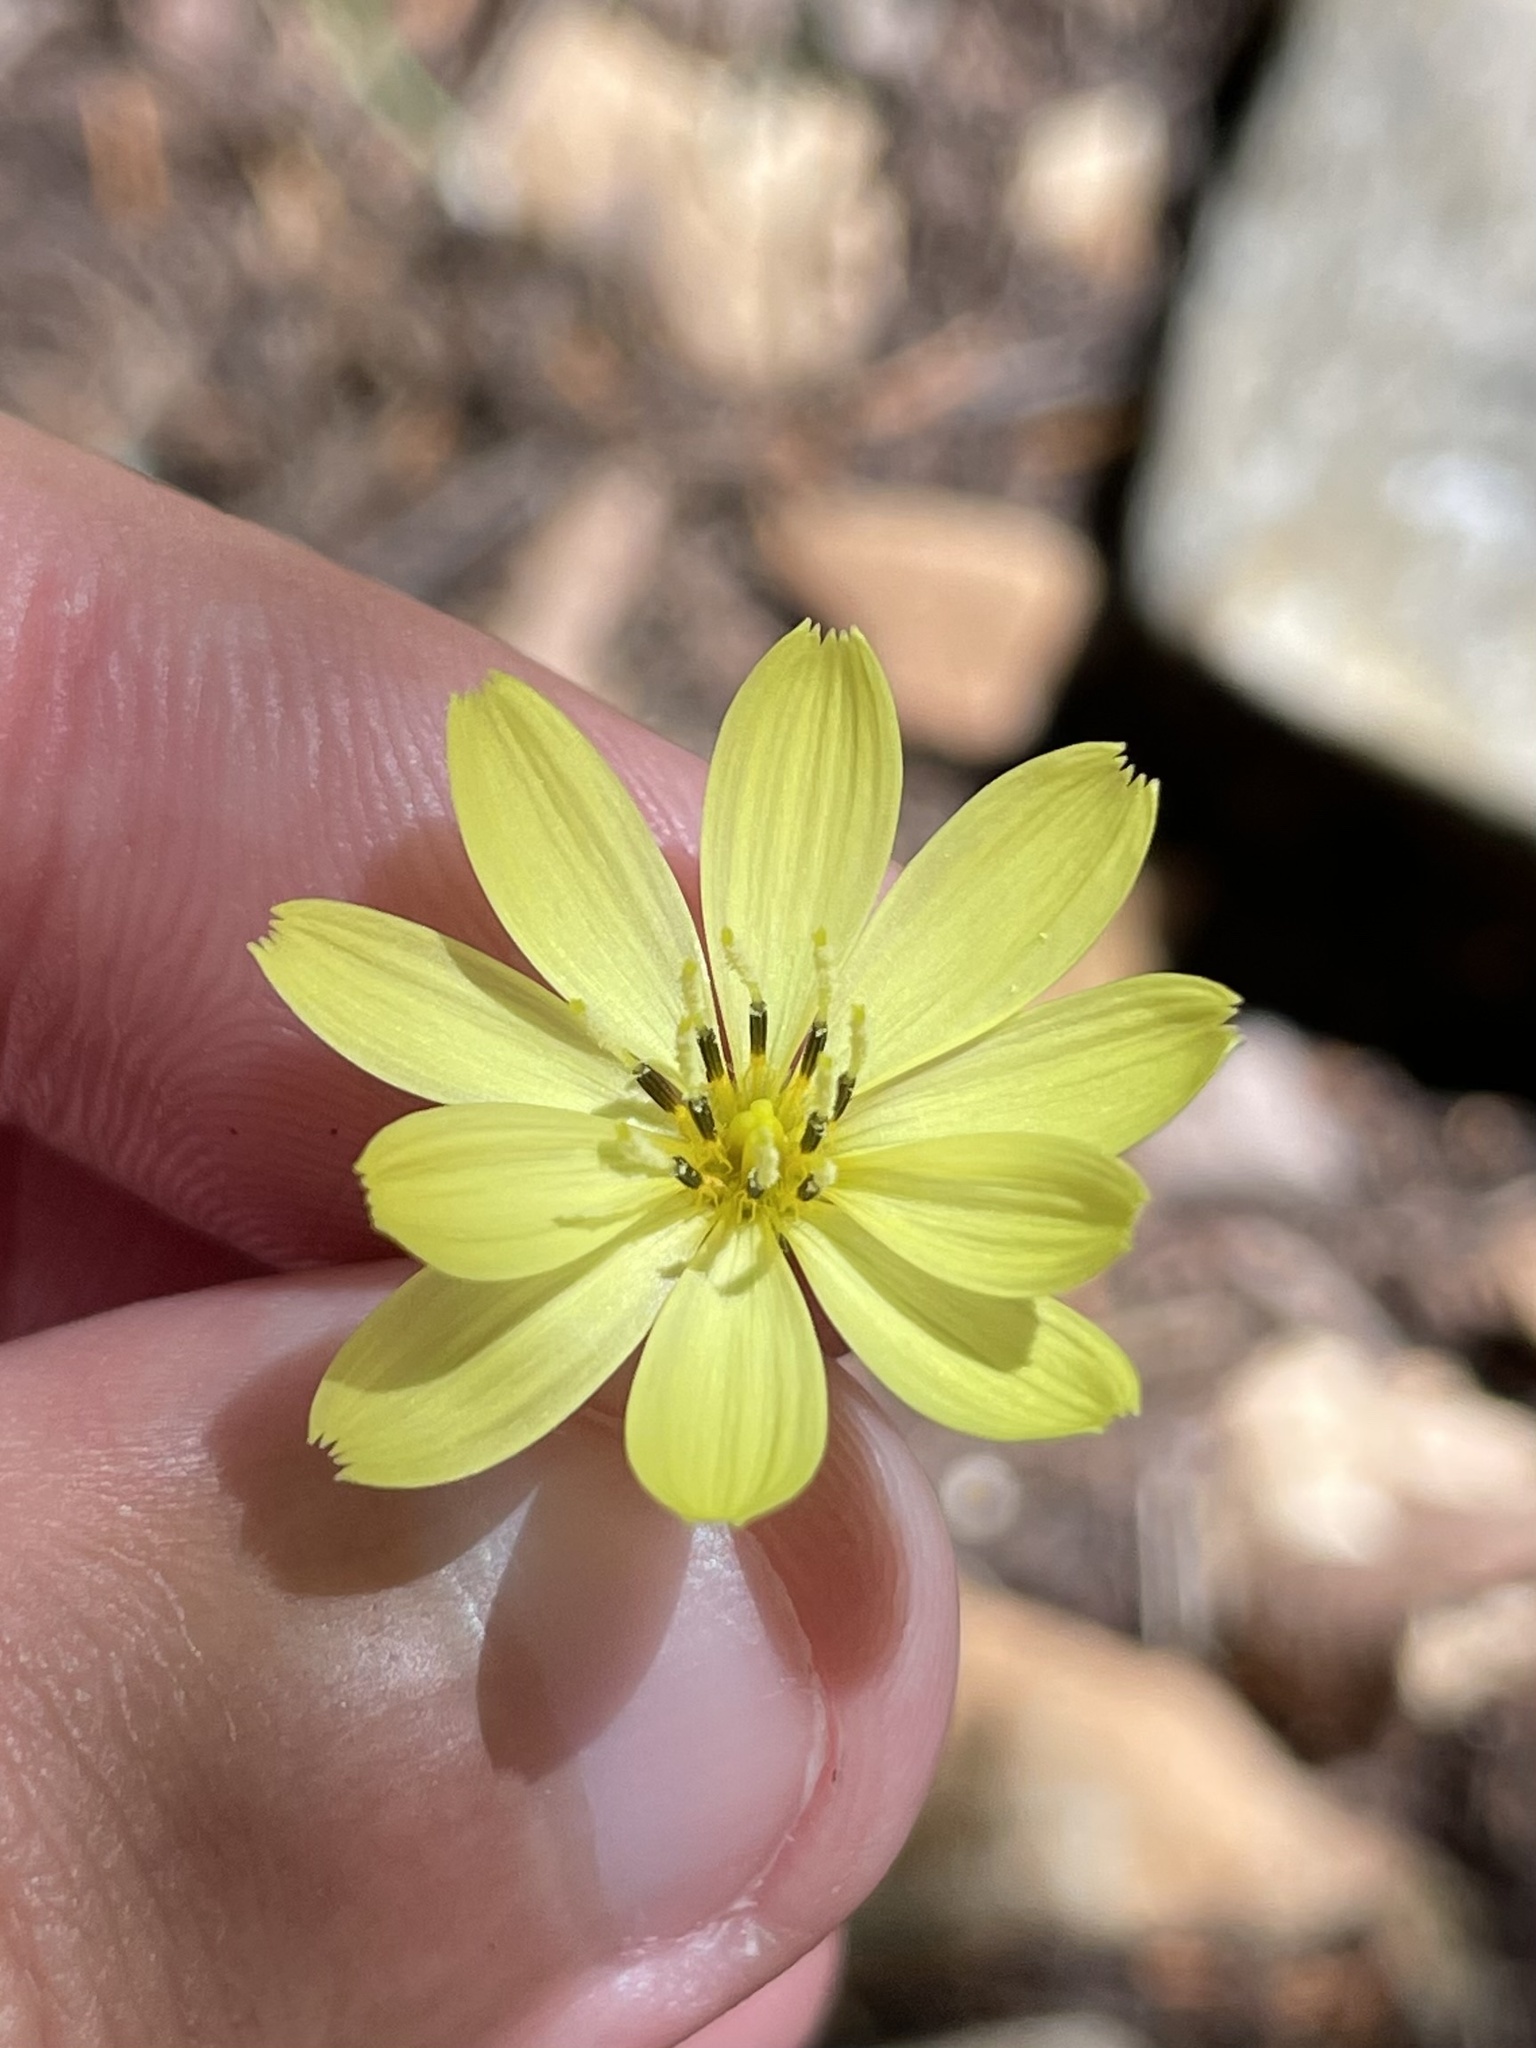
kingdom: Plantae
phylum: Tracheophyta
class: Magnoliopsida
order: Asterales
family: Asteraceae
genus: Pyrrhopappus
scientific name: Pyrrhopappus pauciflorus
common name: Texas false dandelion
